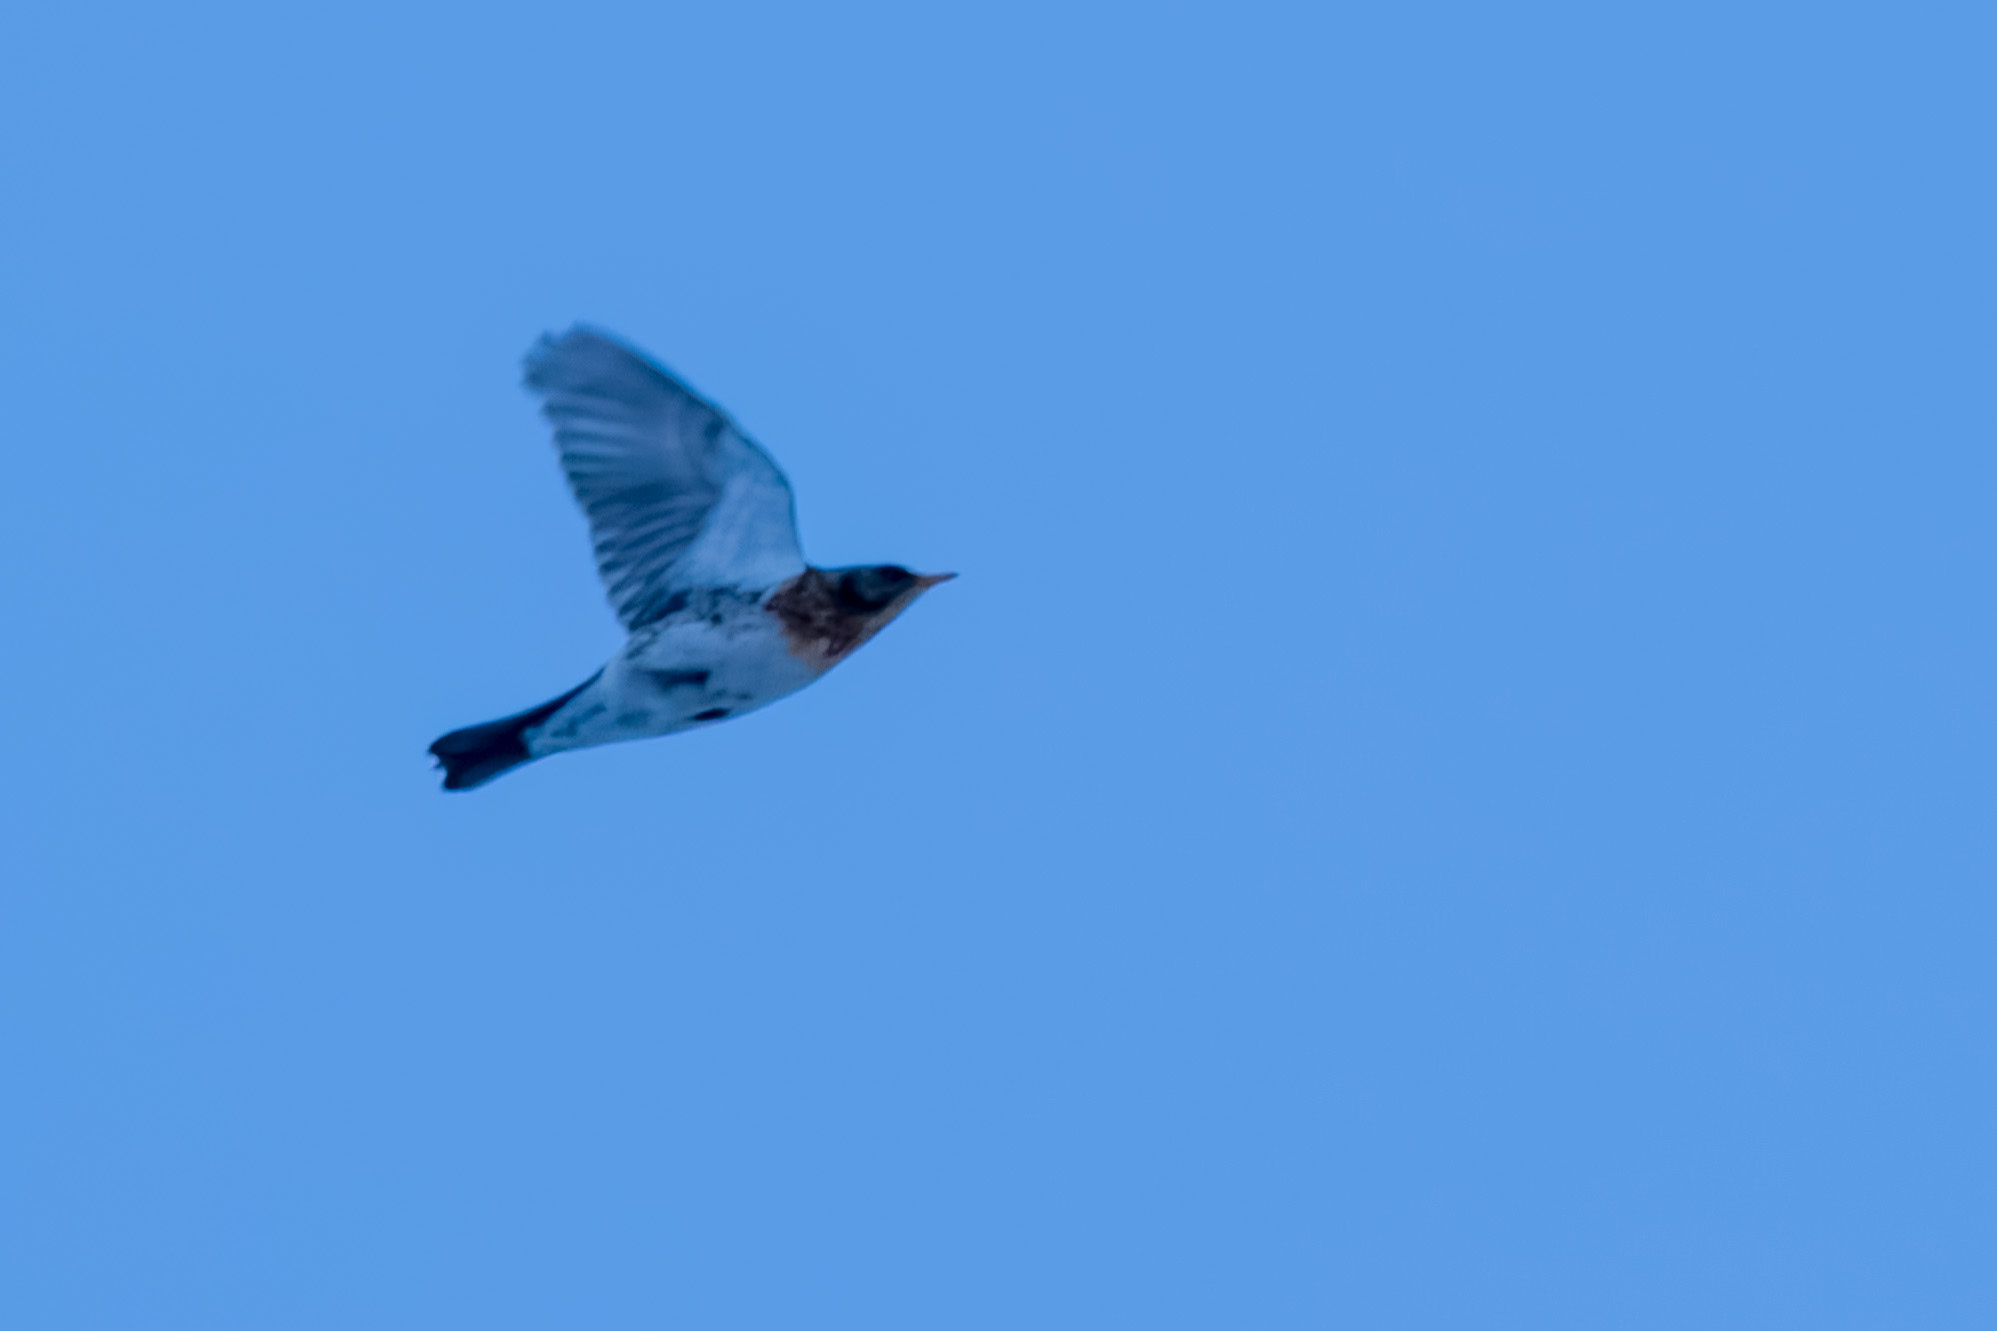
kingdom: Animalia
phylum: Chordata
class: Aves
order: Passeriformes
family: Turdidae
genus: Turdus
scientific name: Turdus pilaris
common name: Fieldfare
